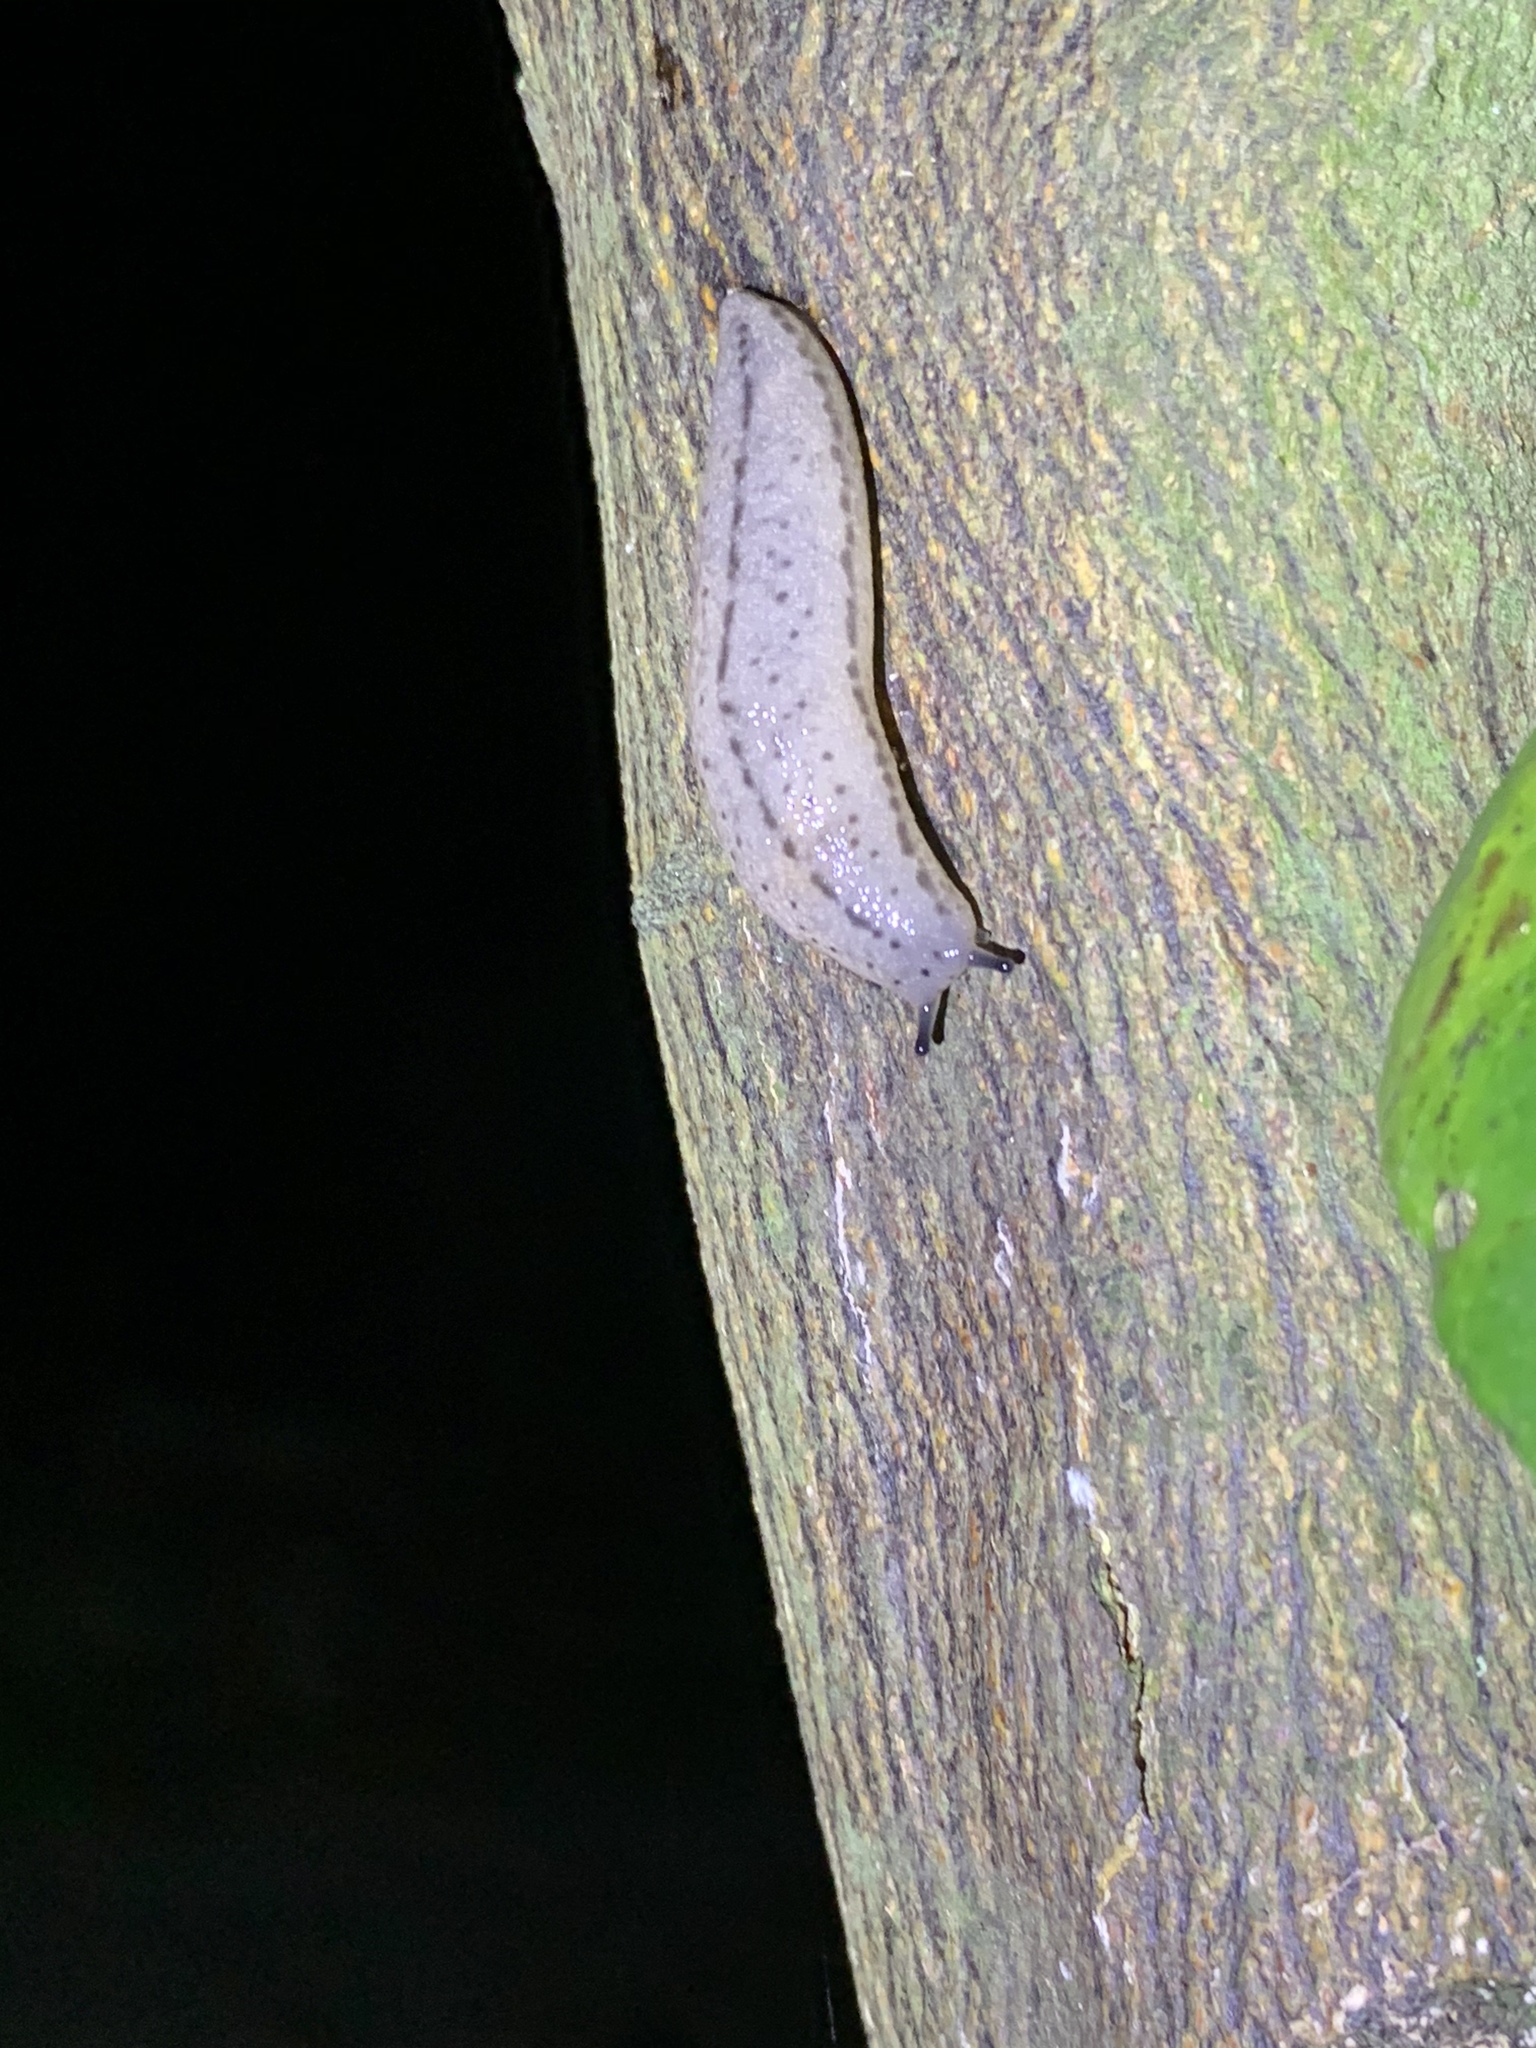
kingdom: Animalia
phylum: Mollusca
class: Gastropoda
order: Stylommatophora
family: Philomycidae
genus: Meghimatium
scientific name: Meghimatium bilineatum
